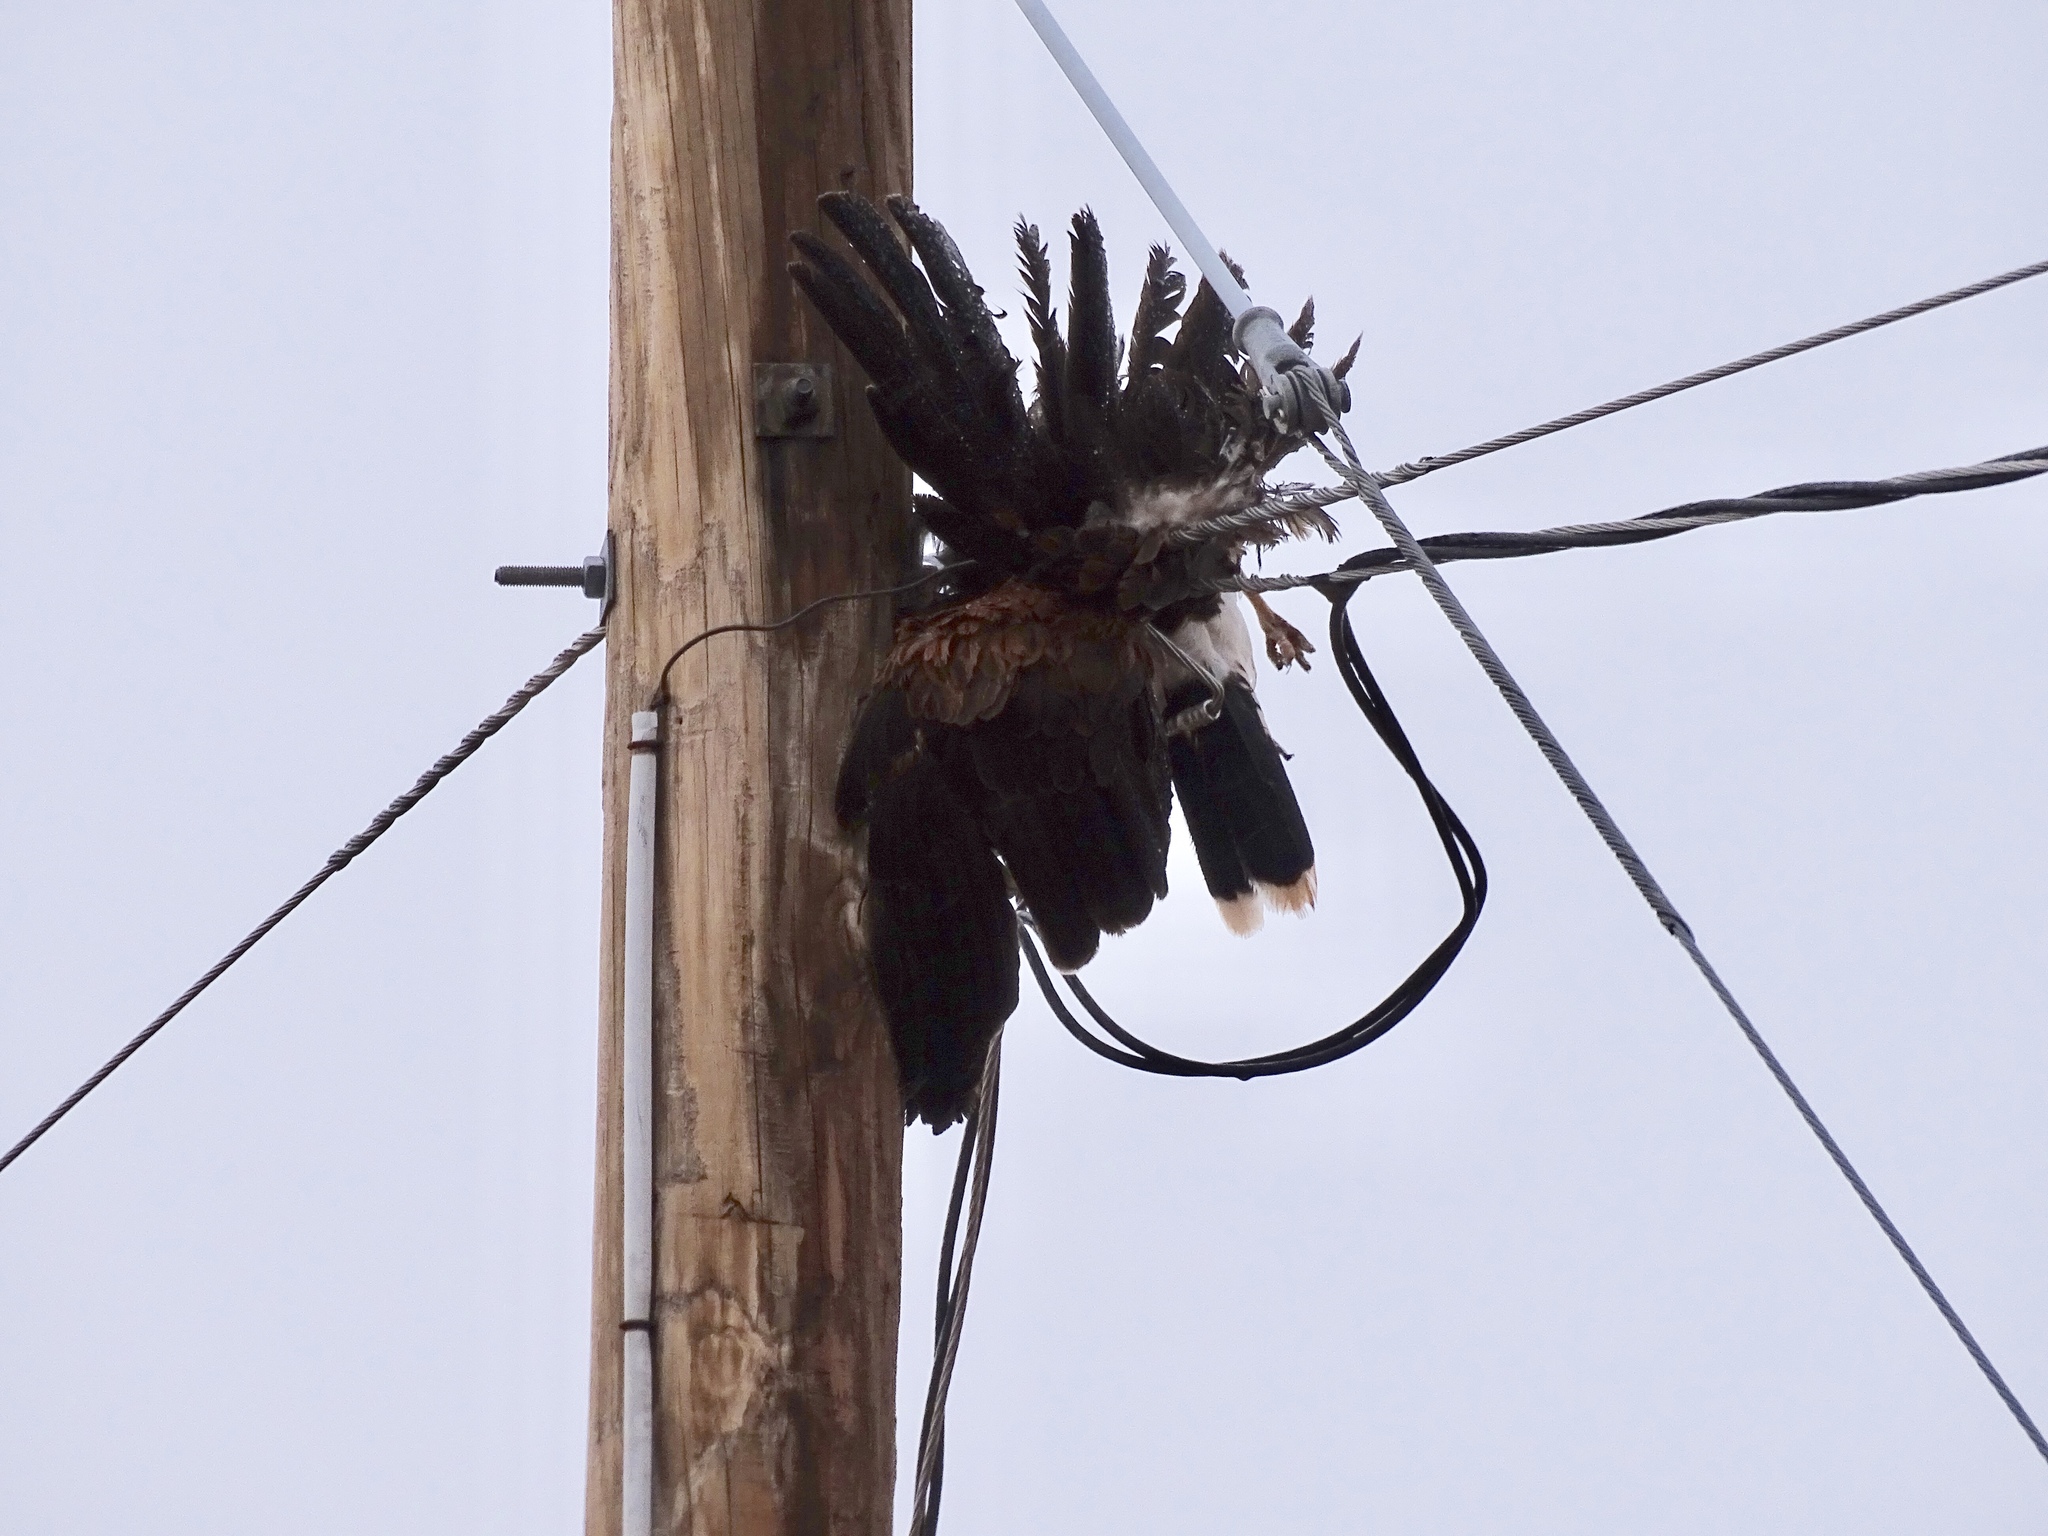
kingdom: Animalia
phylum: Chordata
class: Aves
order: Accipitriformes
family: Accipitridae
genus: Parabuteo
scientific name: Parabuteo unicinctus
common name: Harris's hawk
